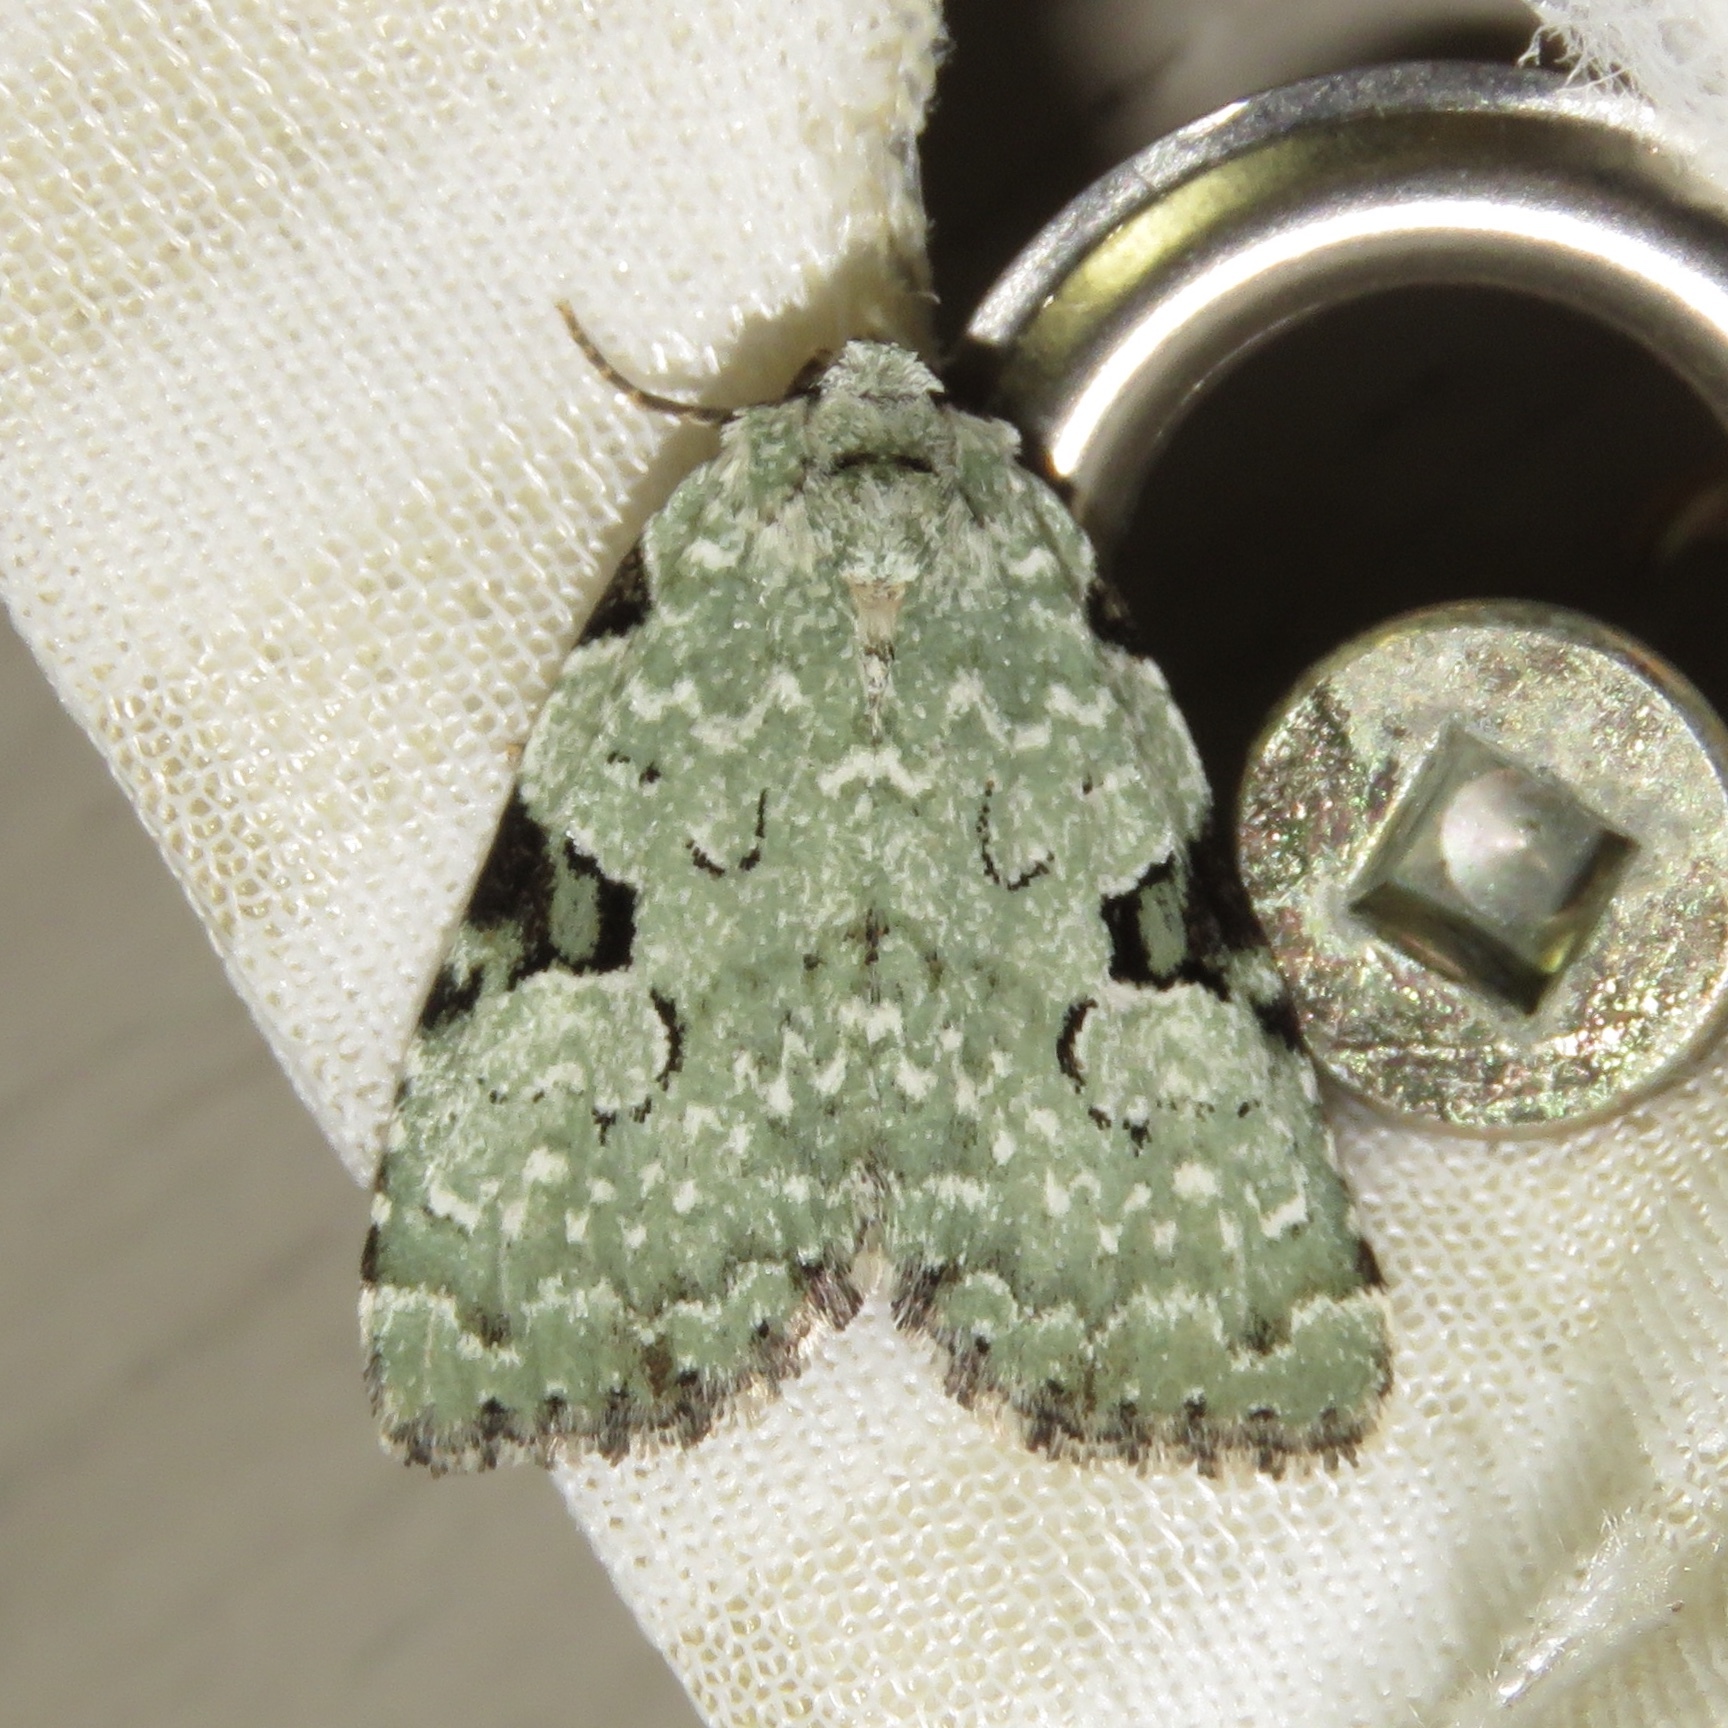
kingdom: Animalia
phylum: Arthropoda
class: Insecta
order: Lepidoptera
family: Noctuidae
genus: Leuconycta
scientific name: Leuconycta diphteroides
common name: Green leuconycta moth
